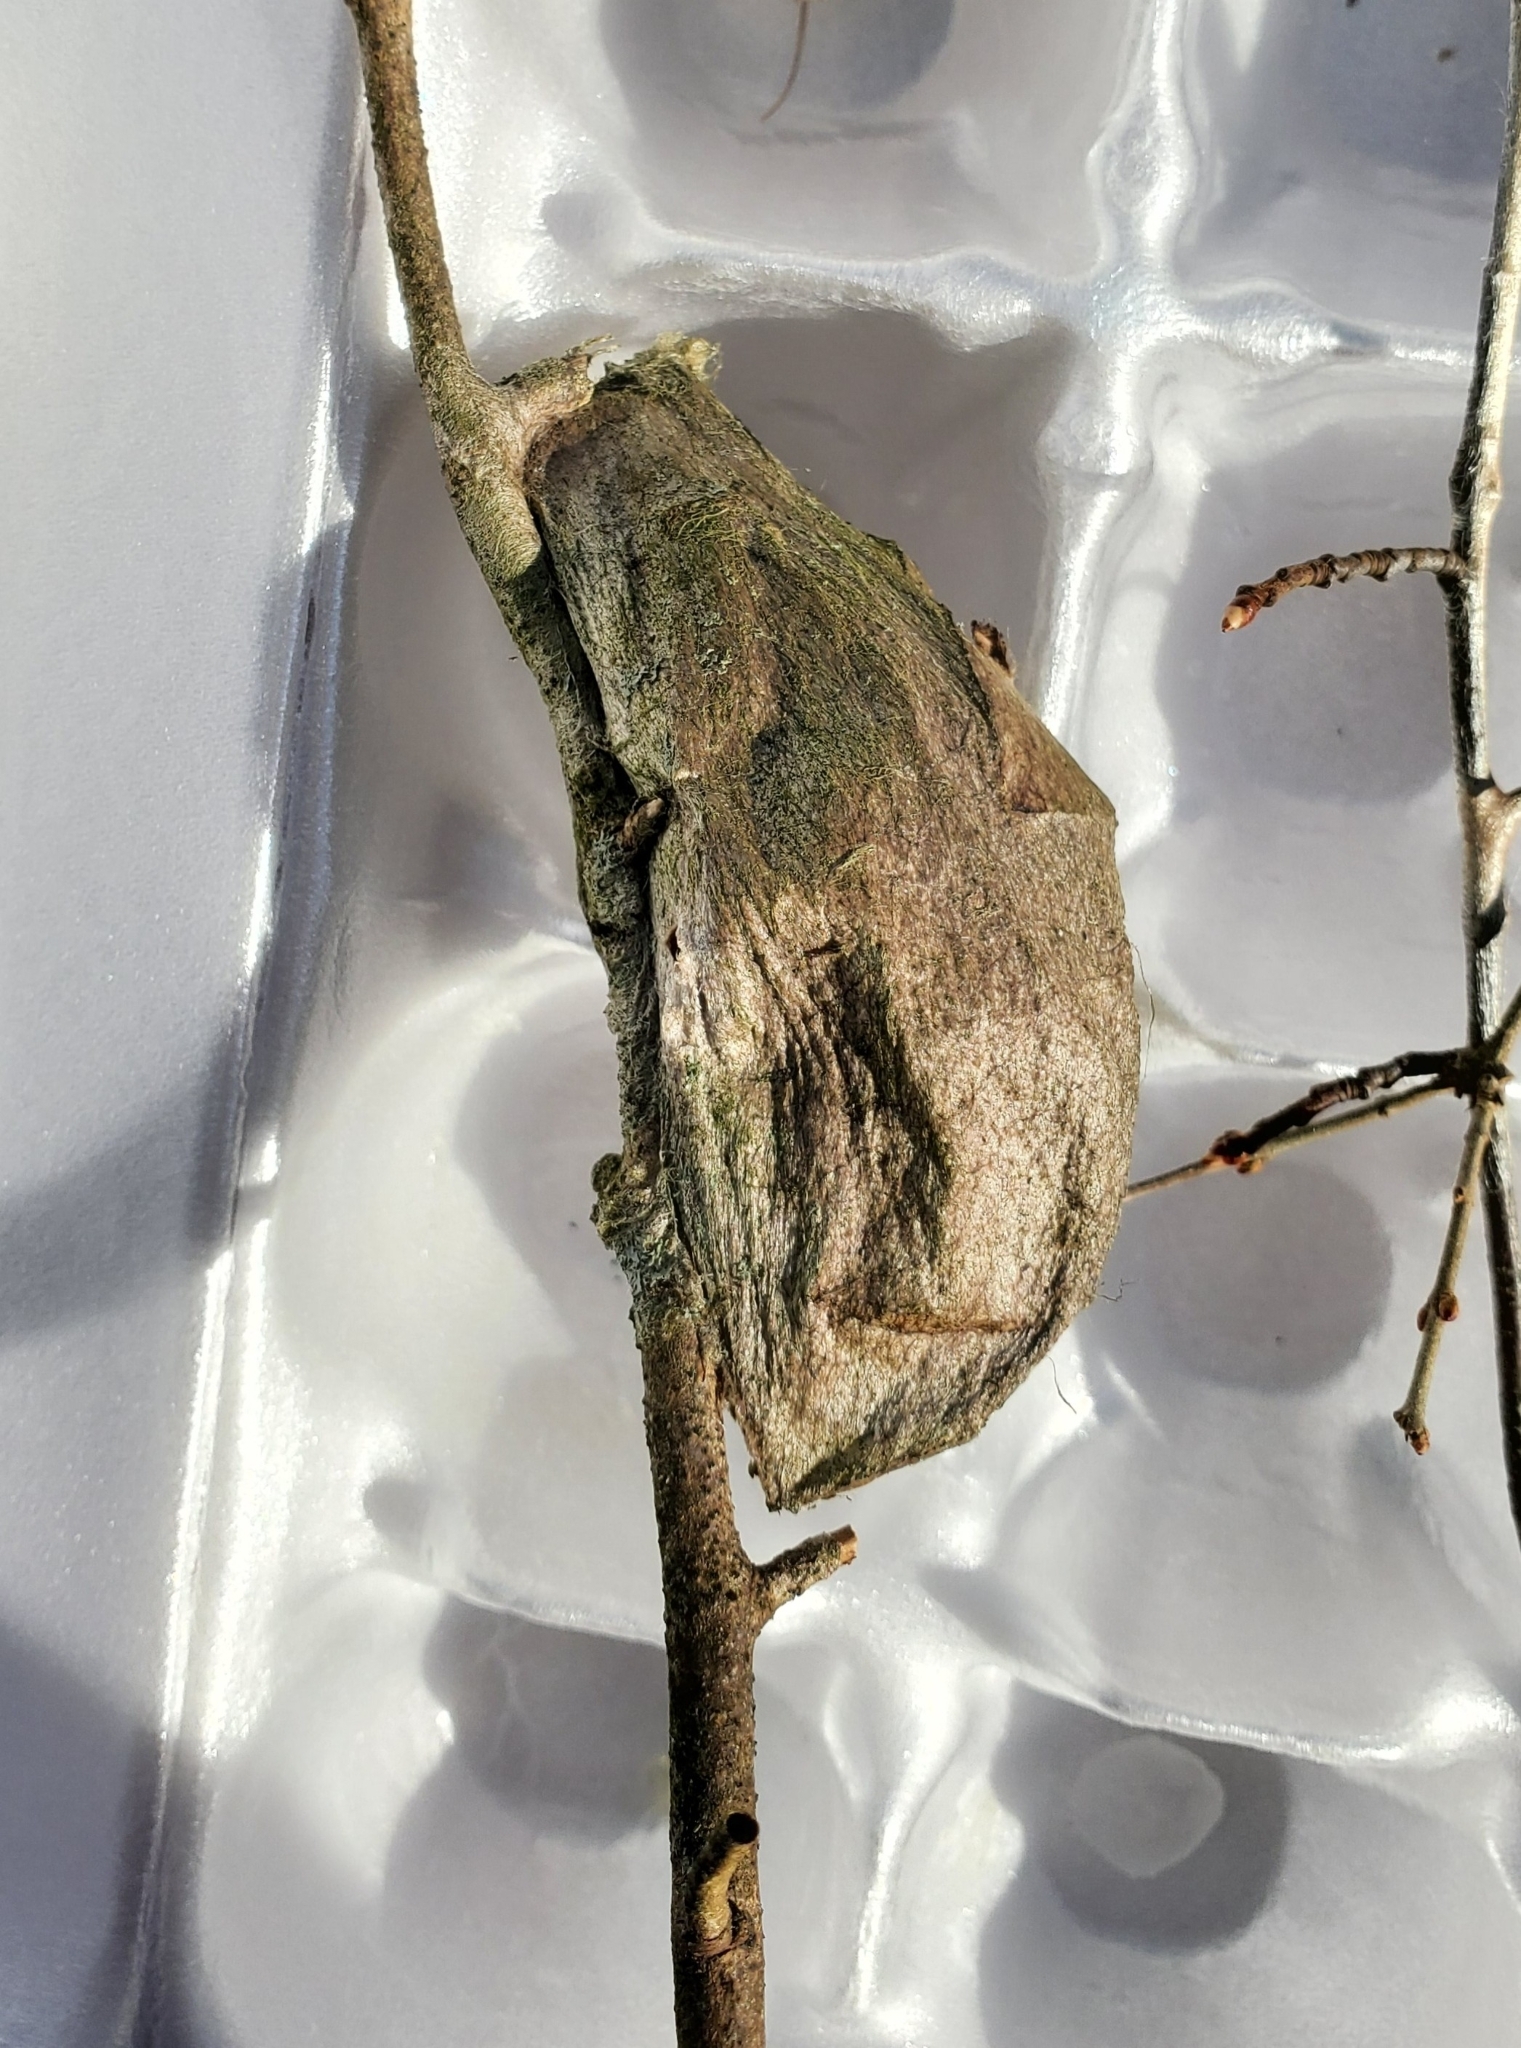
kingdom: Animalia
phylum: Arthropoda
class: Insecta
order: Lepidoptera
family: Saturniidae
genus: Hyalophora
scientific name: Hyalophora cecropia
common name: Cecropia silkmoth
